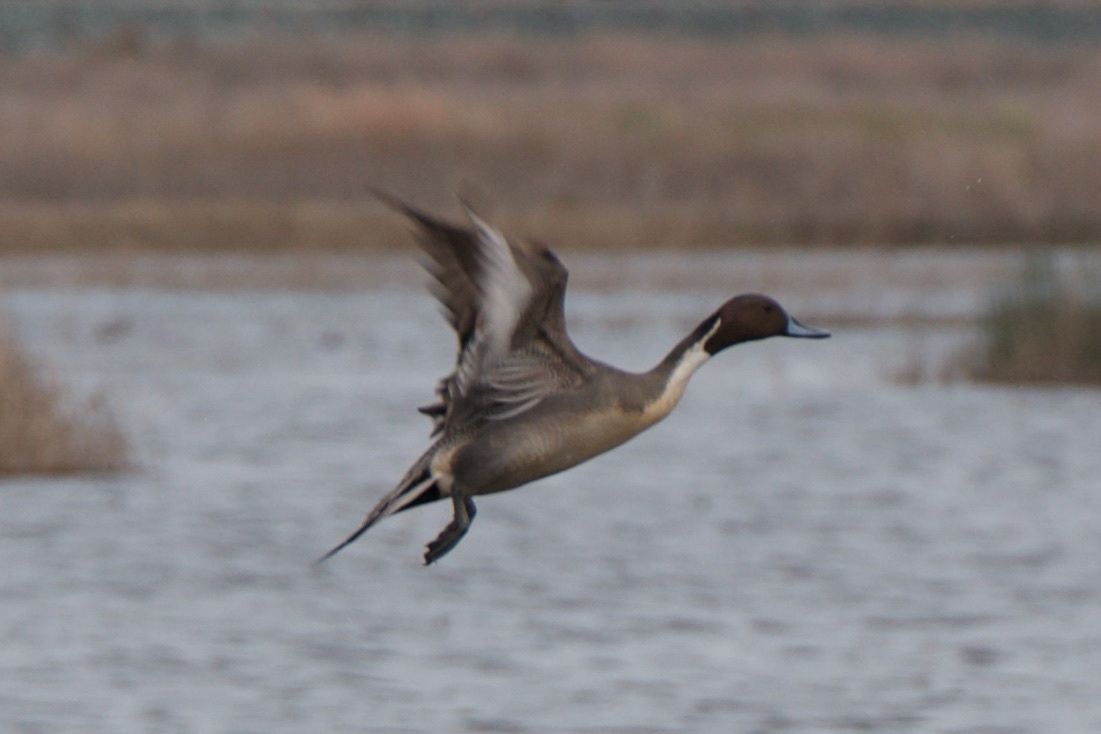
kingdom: Animalia
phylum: Chordata
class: Aves
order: Anseriformes
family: Anatidae
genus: Anas
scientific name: Anas acuta
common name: Northern pintail
